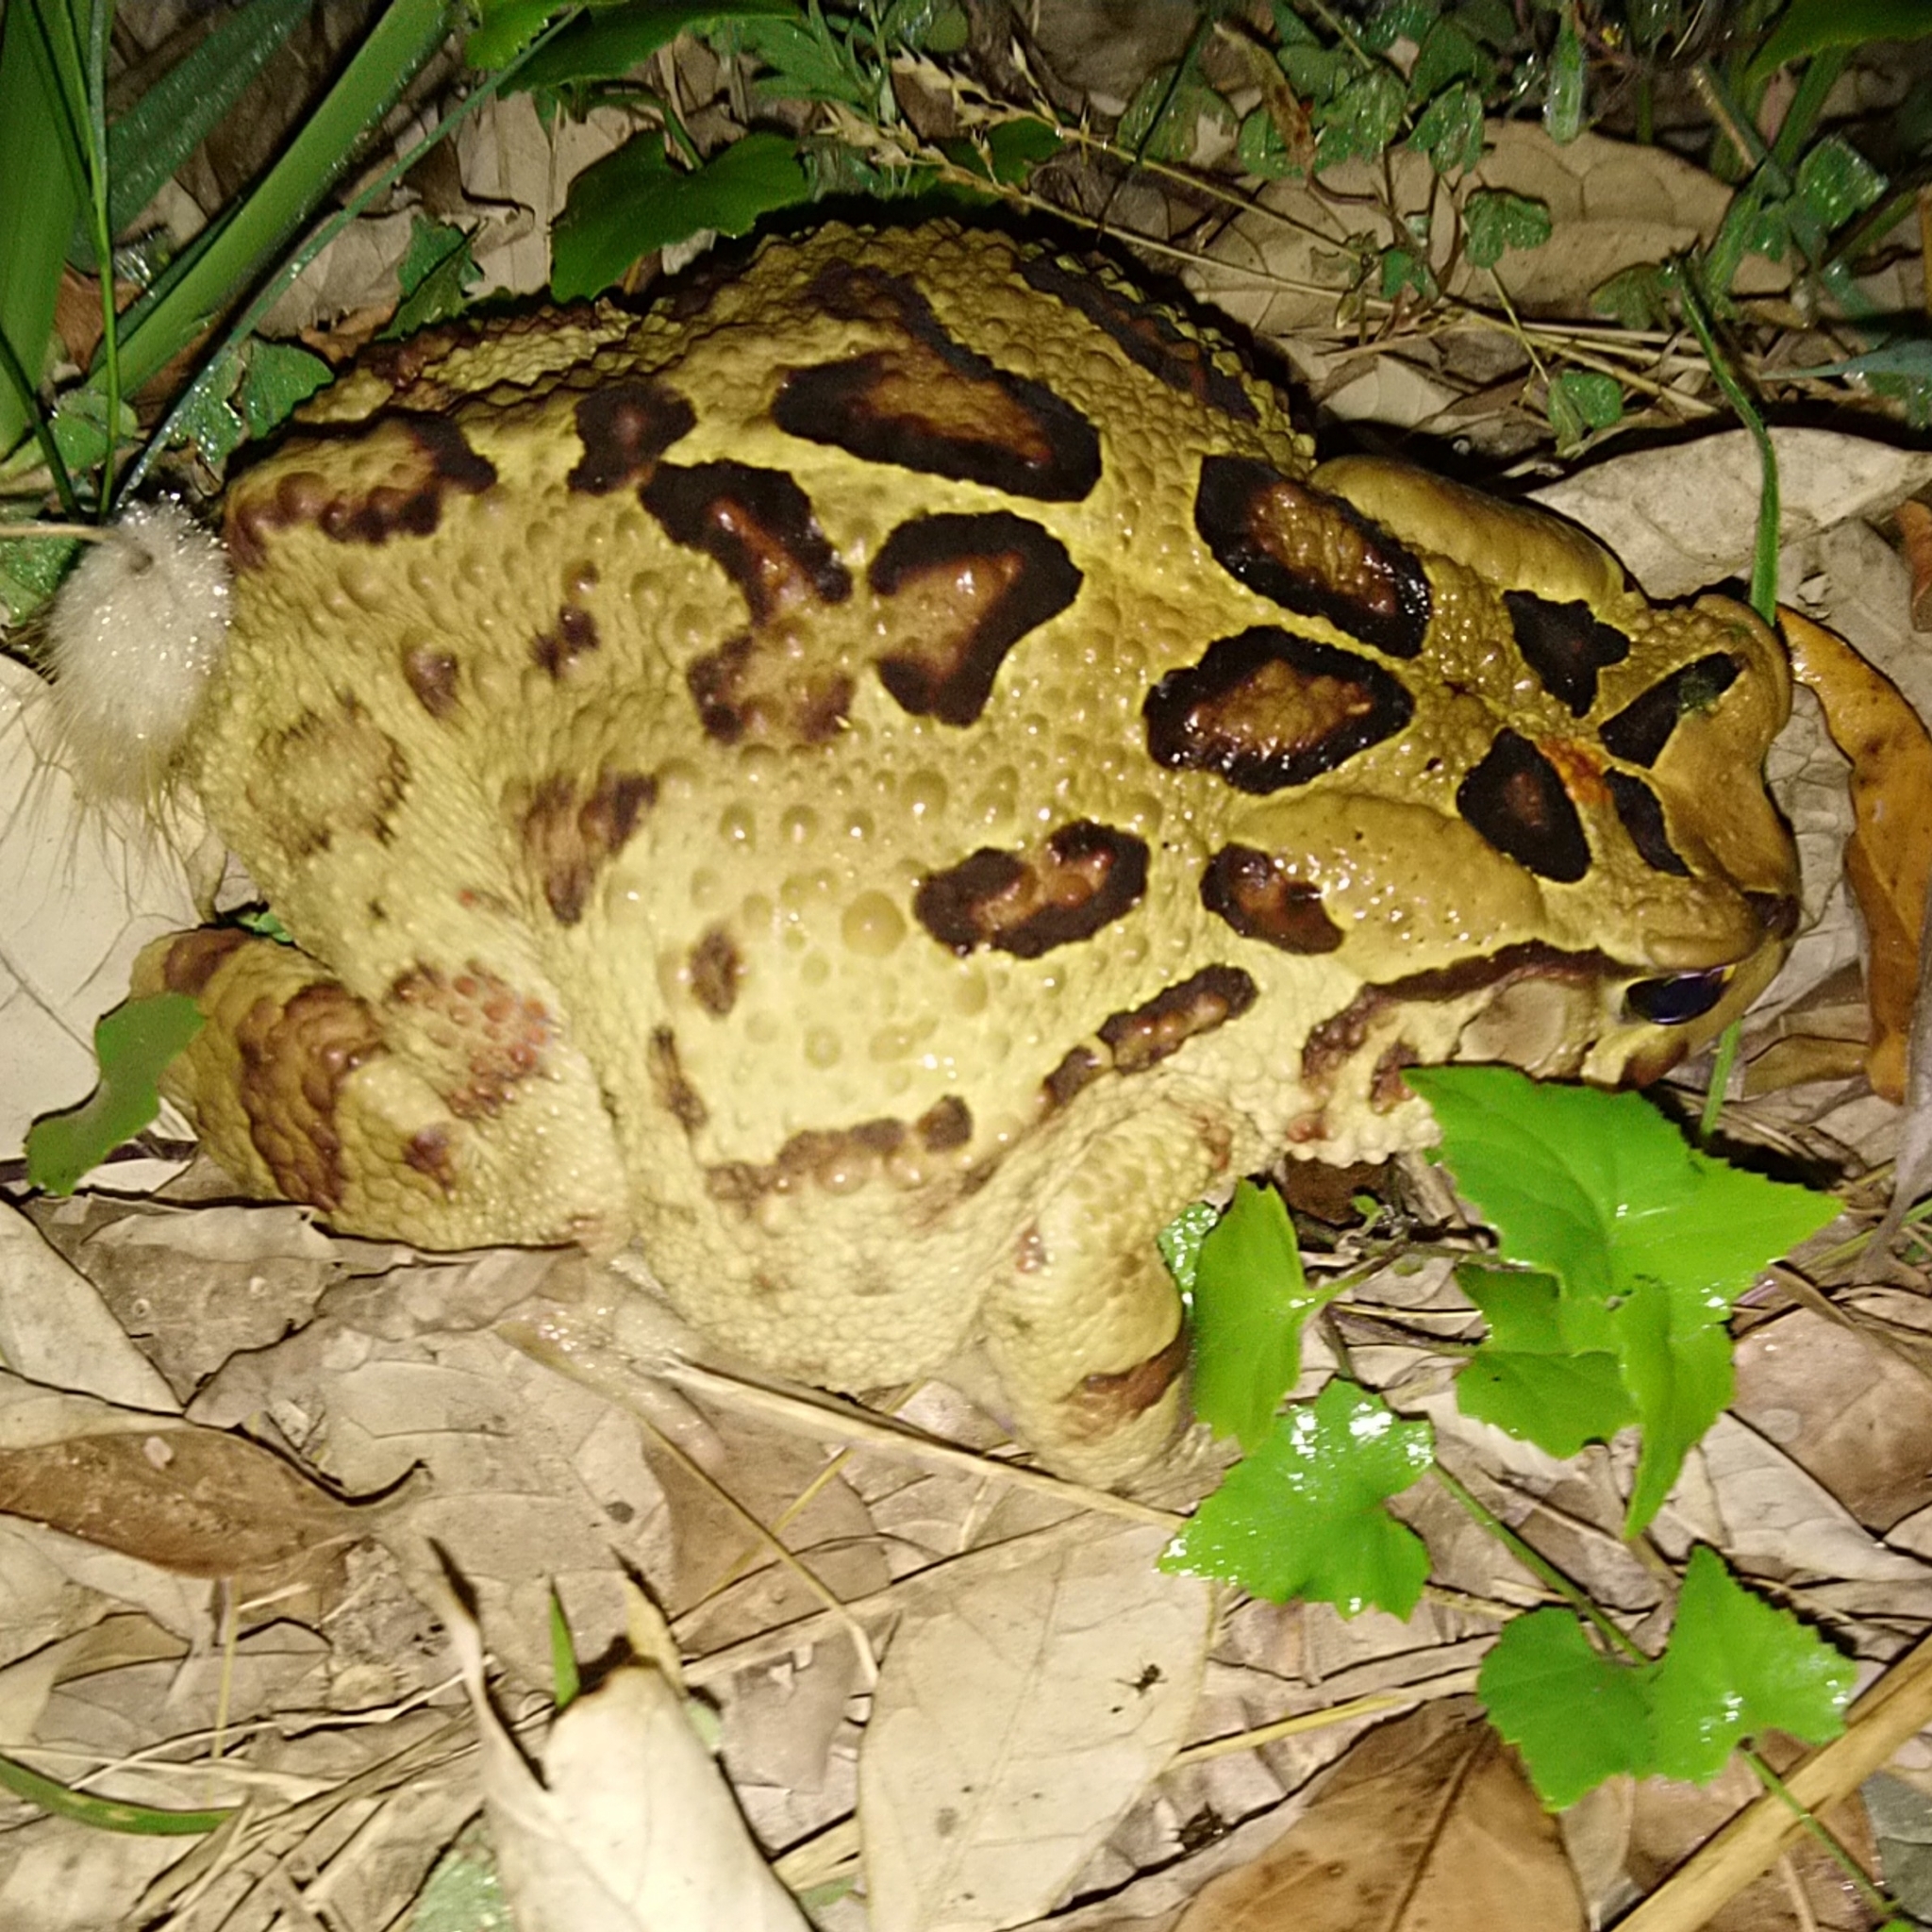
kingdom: Animalia
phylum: Chordata
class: Amphibia
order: Anura
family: Bufonidae
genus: Sclerophrys
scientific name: Sclerophrys pardalis
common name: Eastern leopard toad
